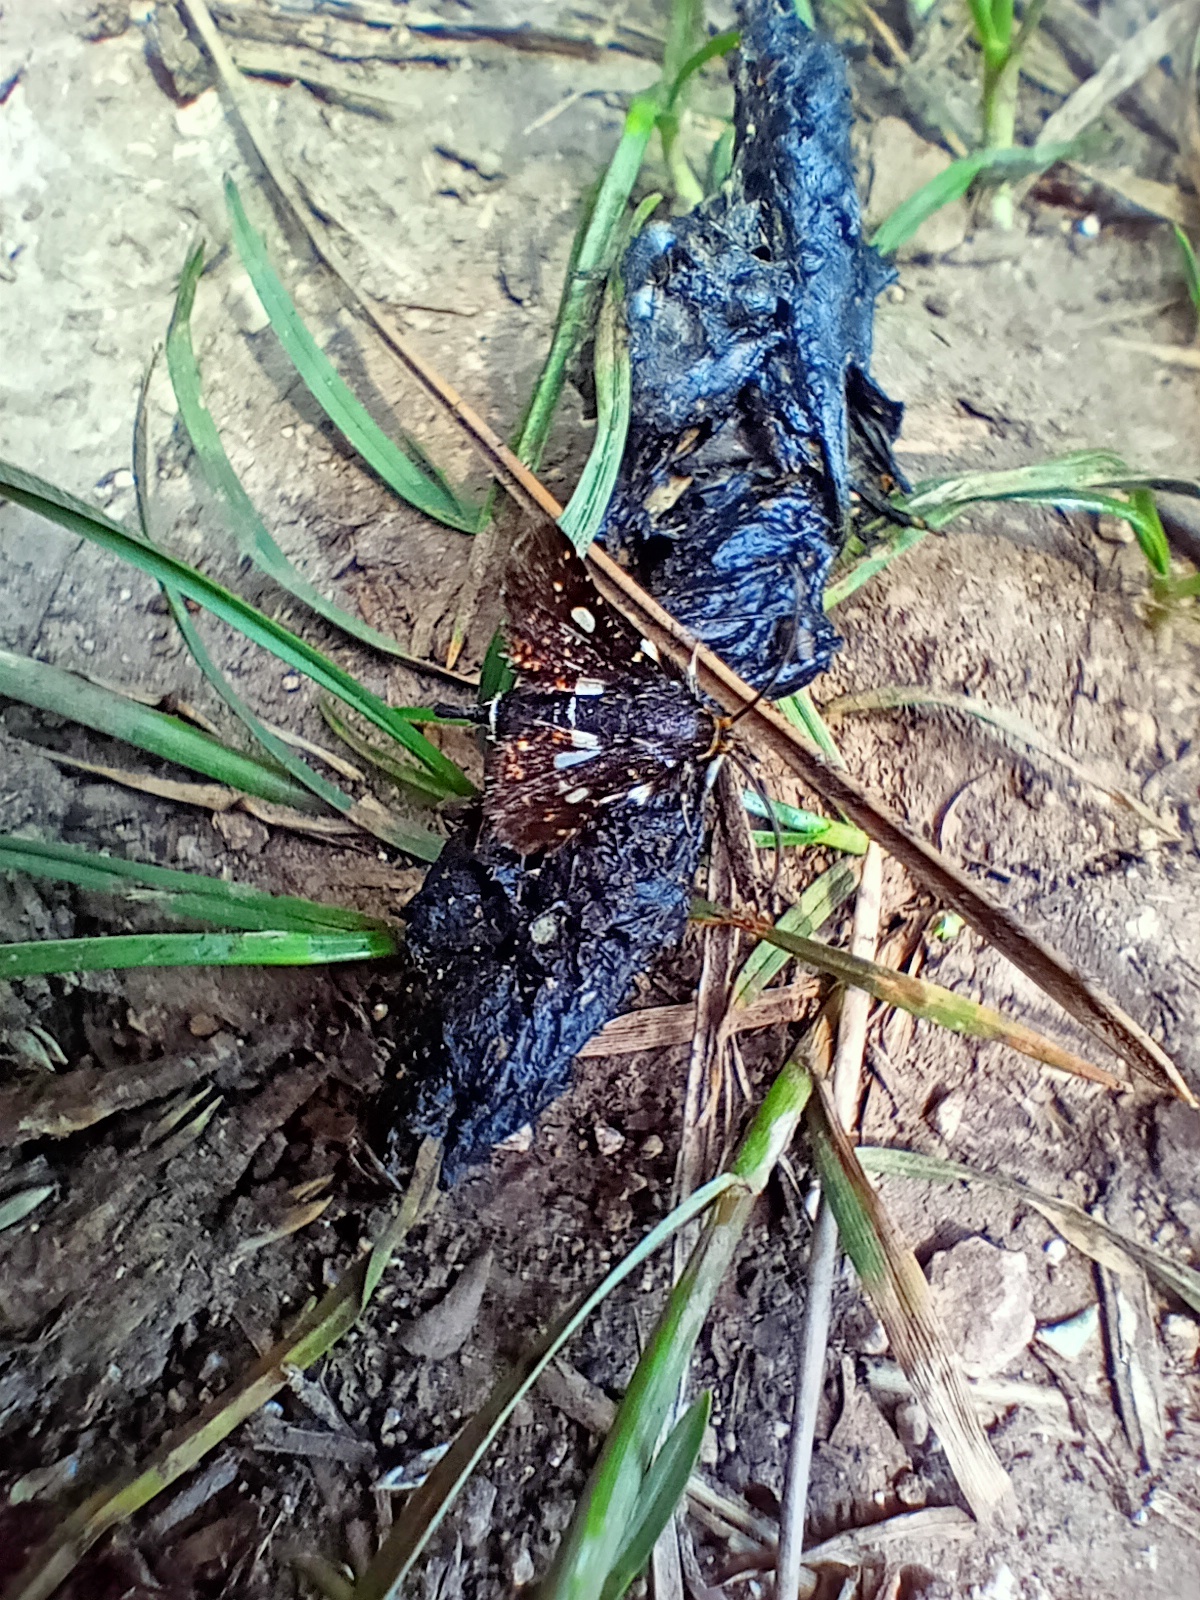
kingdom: Animalia
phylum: Arthropoda
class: Insecta
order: Lepidoptera
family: Thyrididae
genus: Thyris
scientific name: Thyris fenestrella
